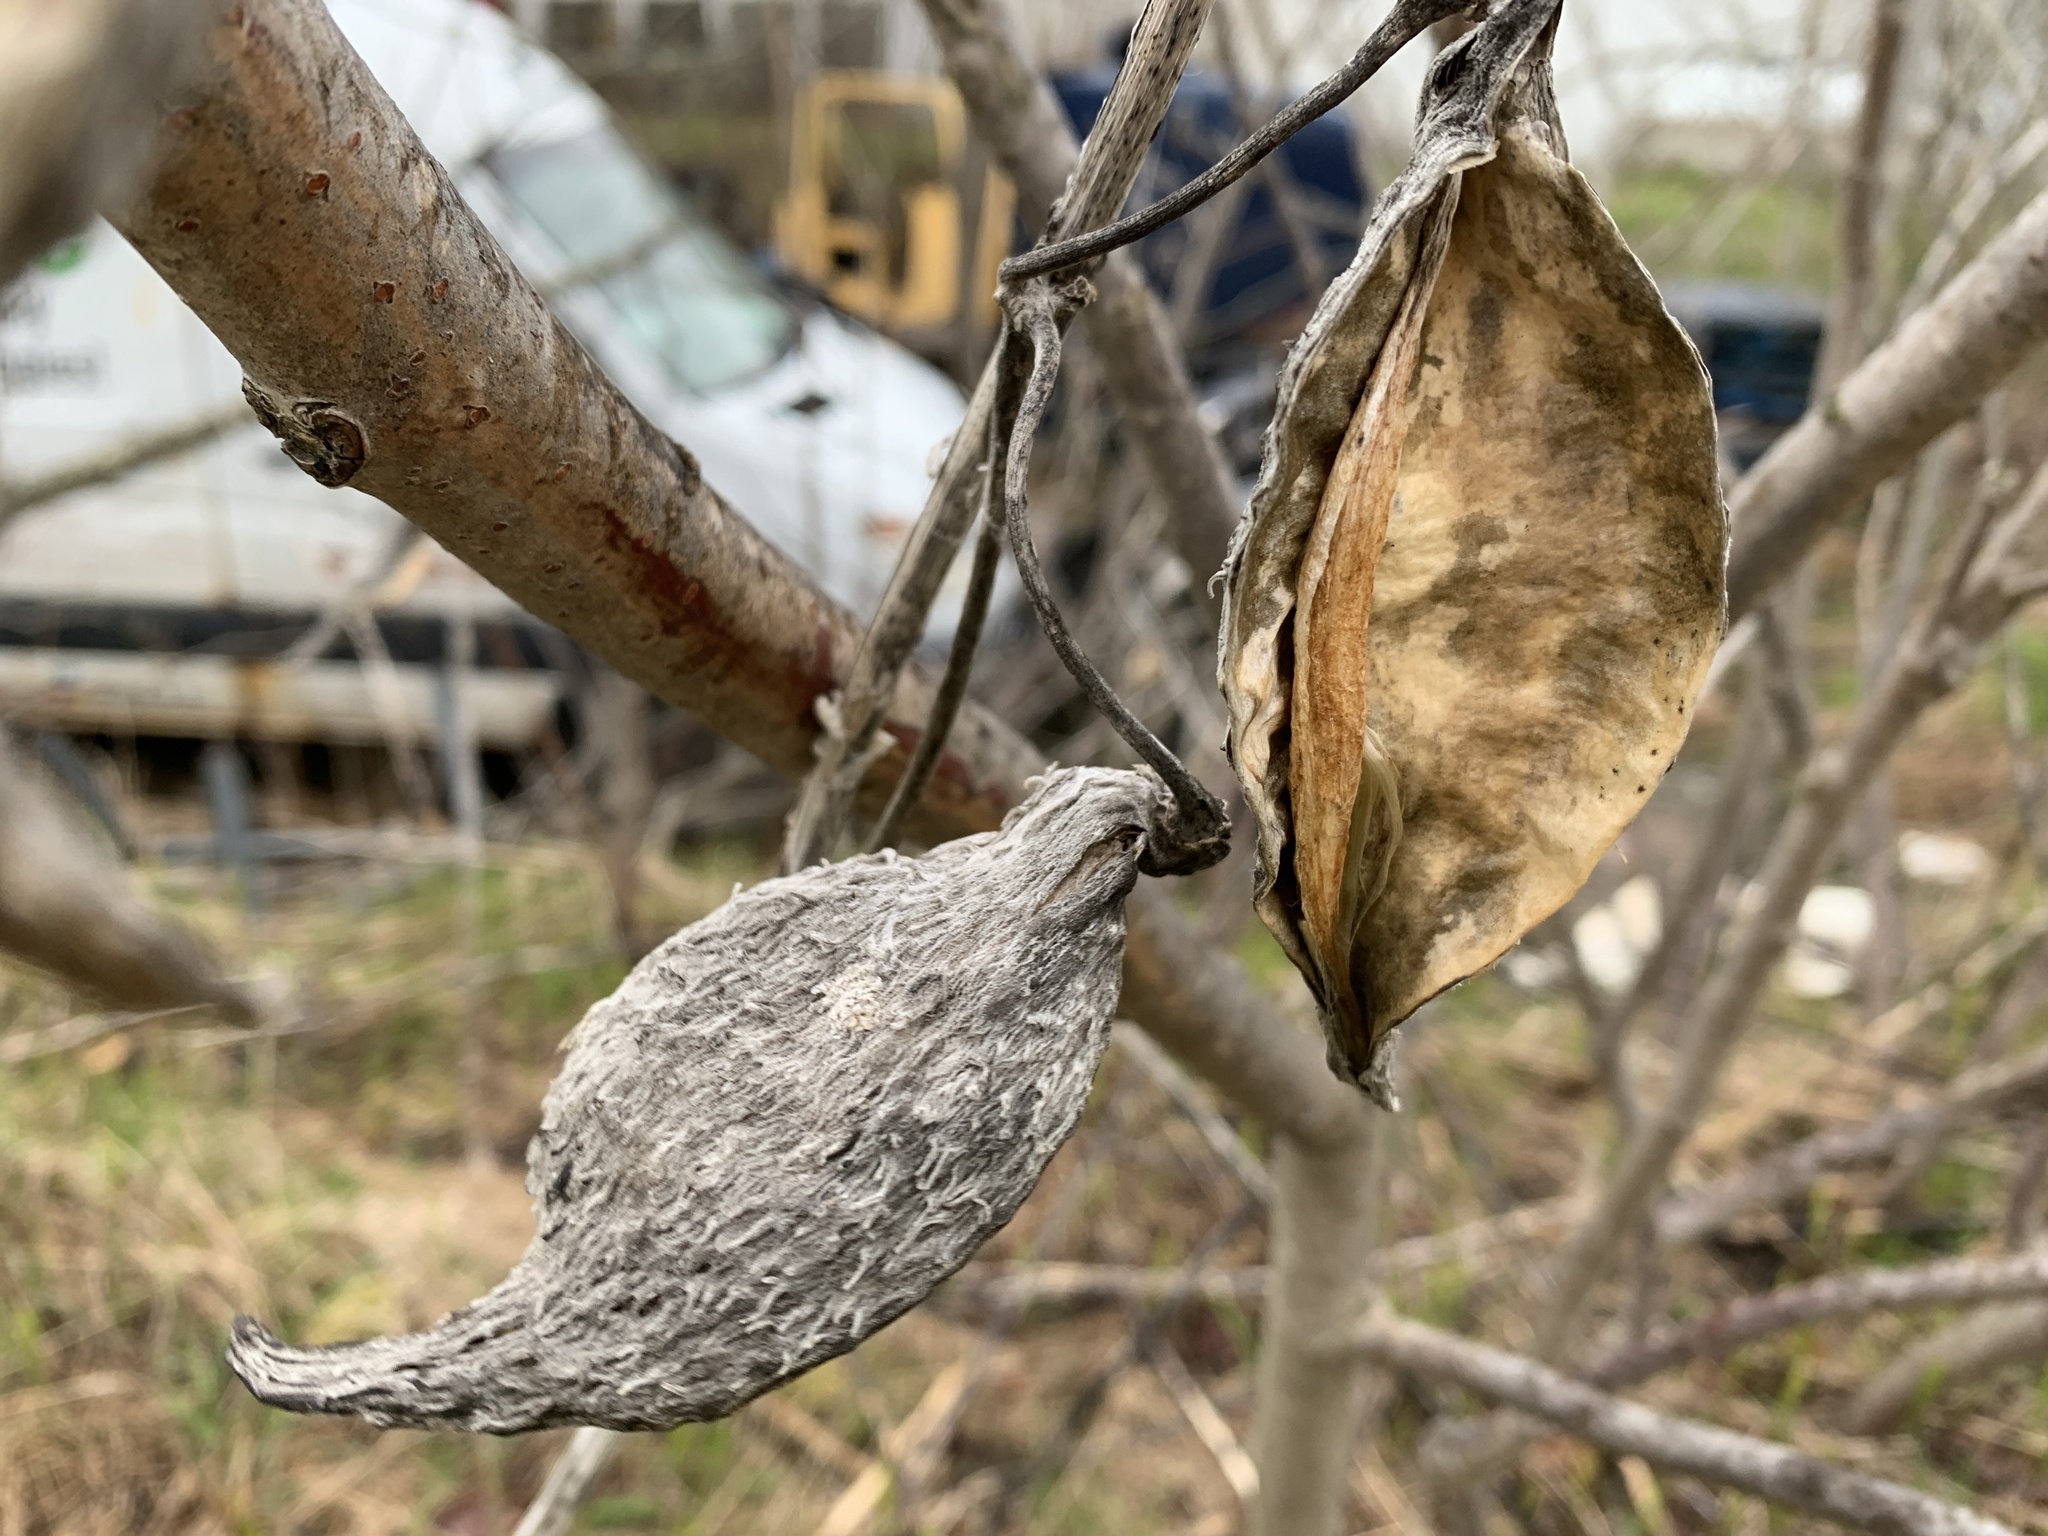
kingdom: Plantae
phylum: Tracheophyta
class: Magnoliopsida
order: Gentianales
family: Apocynaceae
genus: Asclepias
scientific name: Asclepias syriaca
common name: Common milkweed
